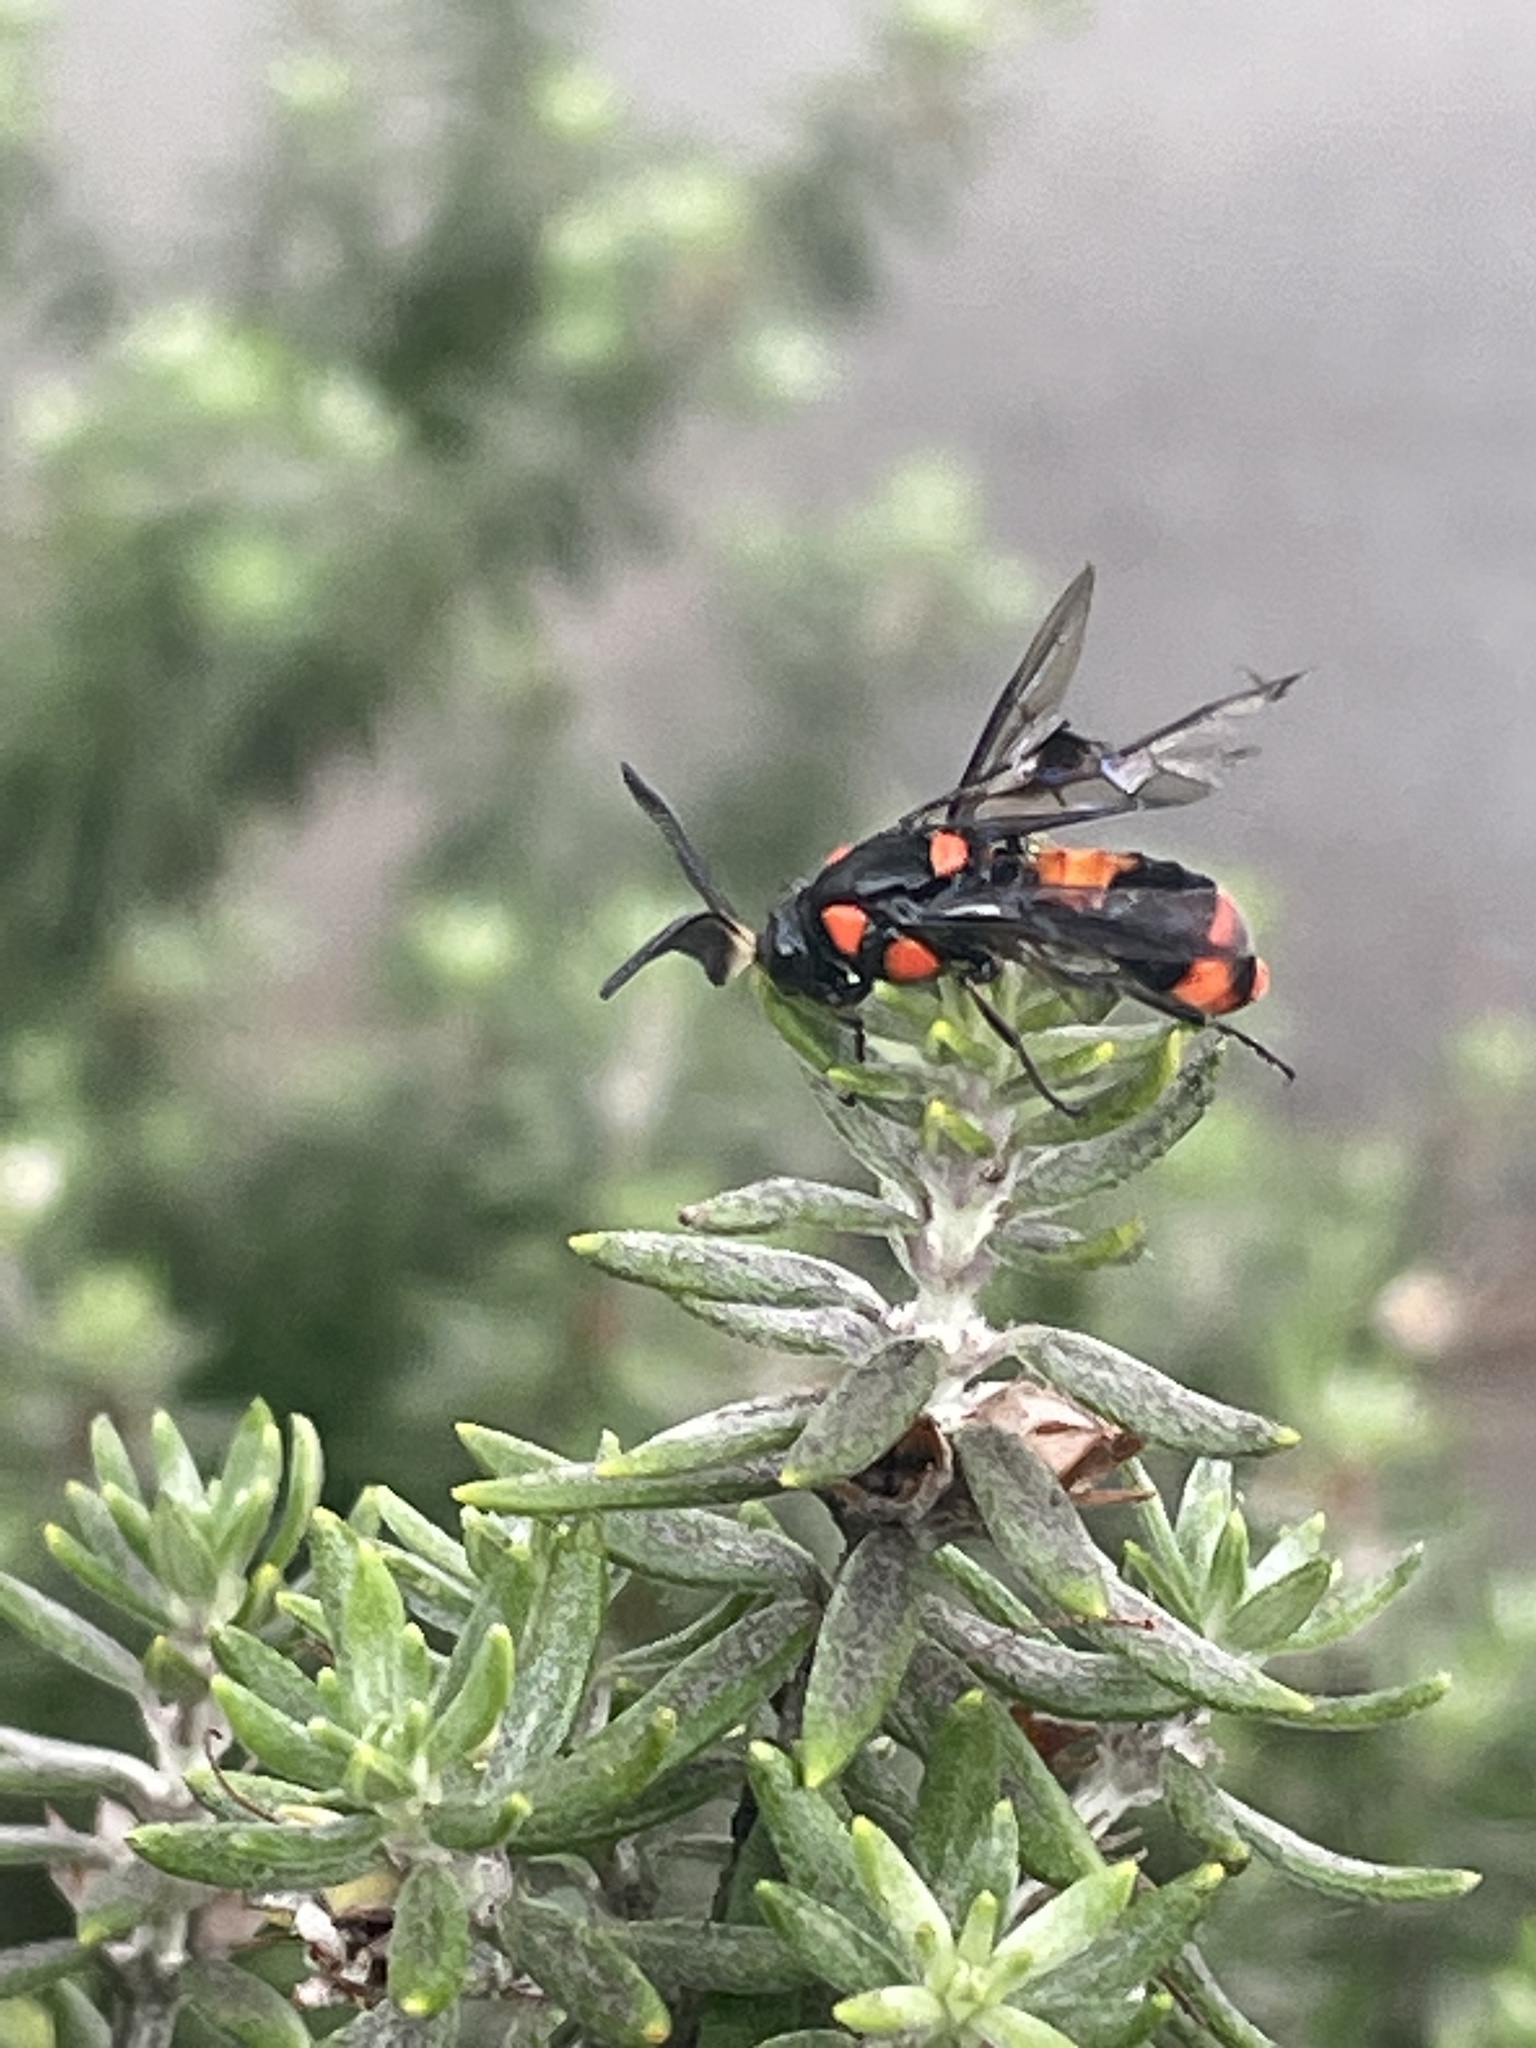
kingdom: Animalia
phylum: Arthropoda
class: Insecta
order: Hymenoptera
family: Pergidae
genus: Pterygophorus
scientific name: Pterygophorus
